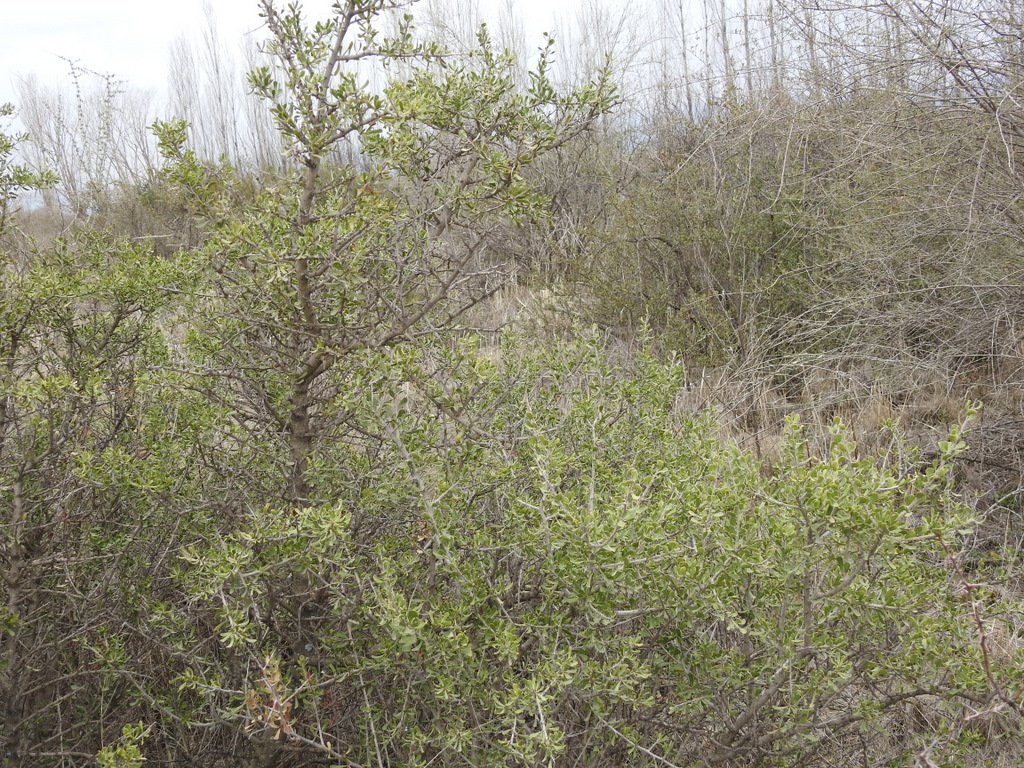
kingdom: Plantae
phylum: Tracheophyta
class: Magnoliopsida
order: Sapindales
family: Anacardiaceae
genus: Schinus
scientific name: Schinus fasciculata
